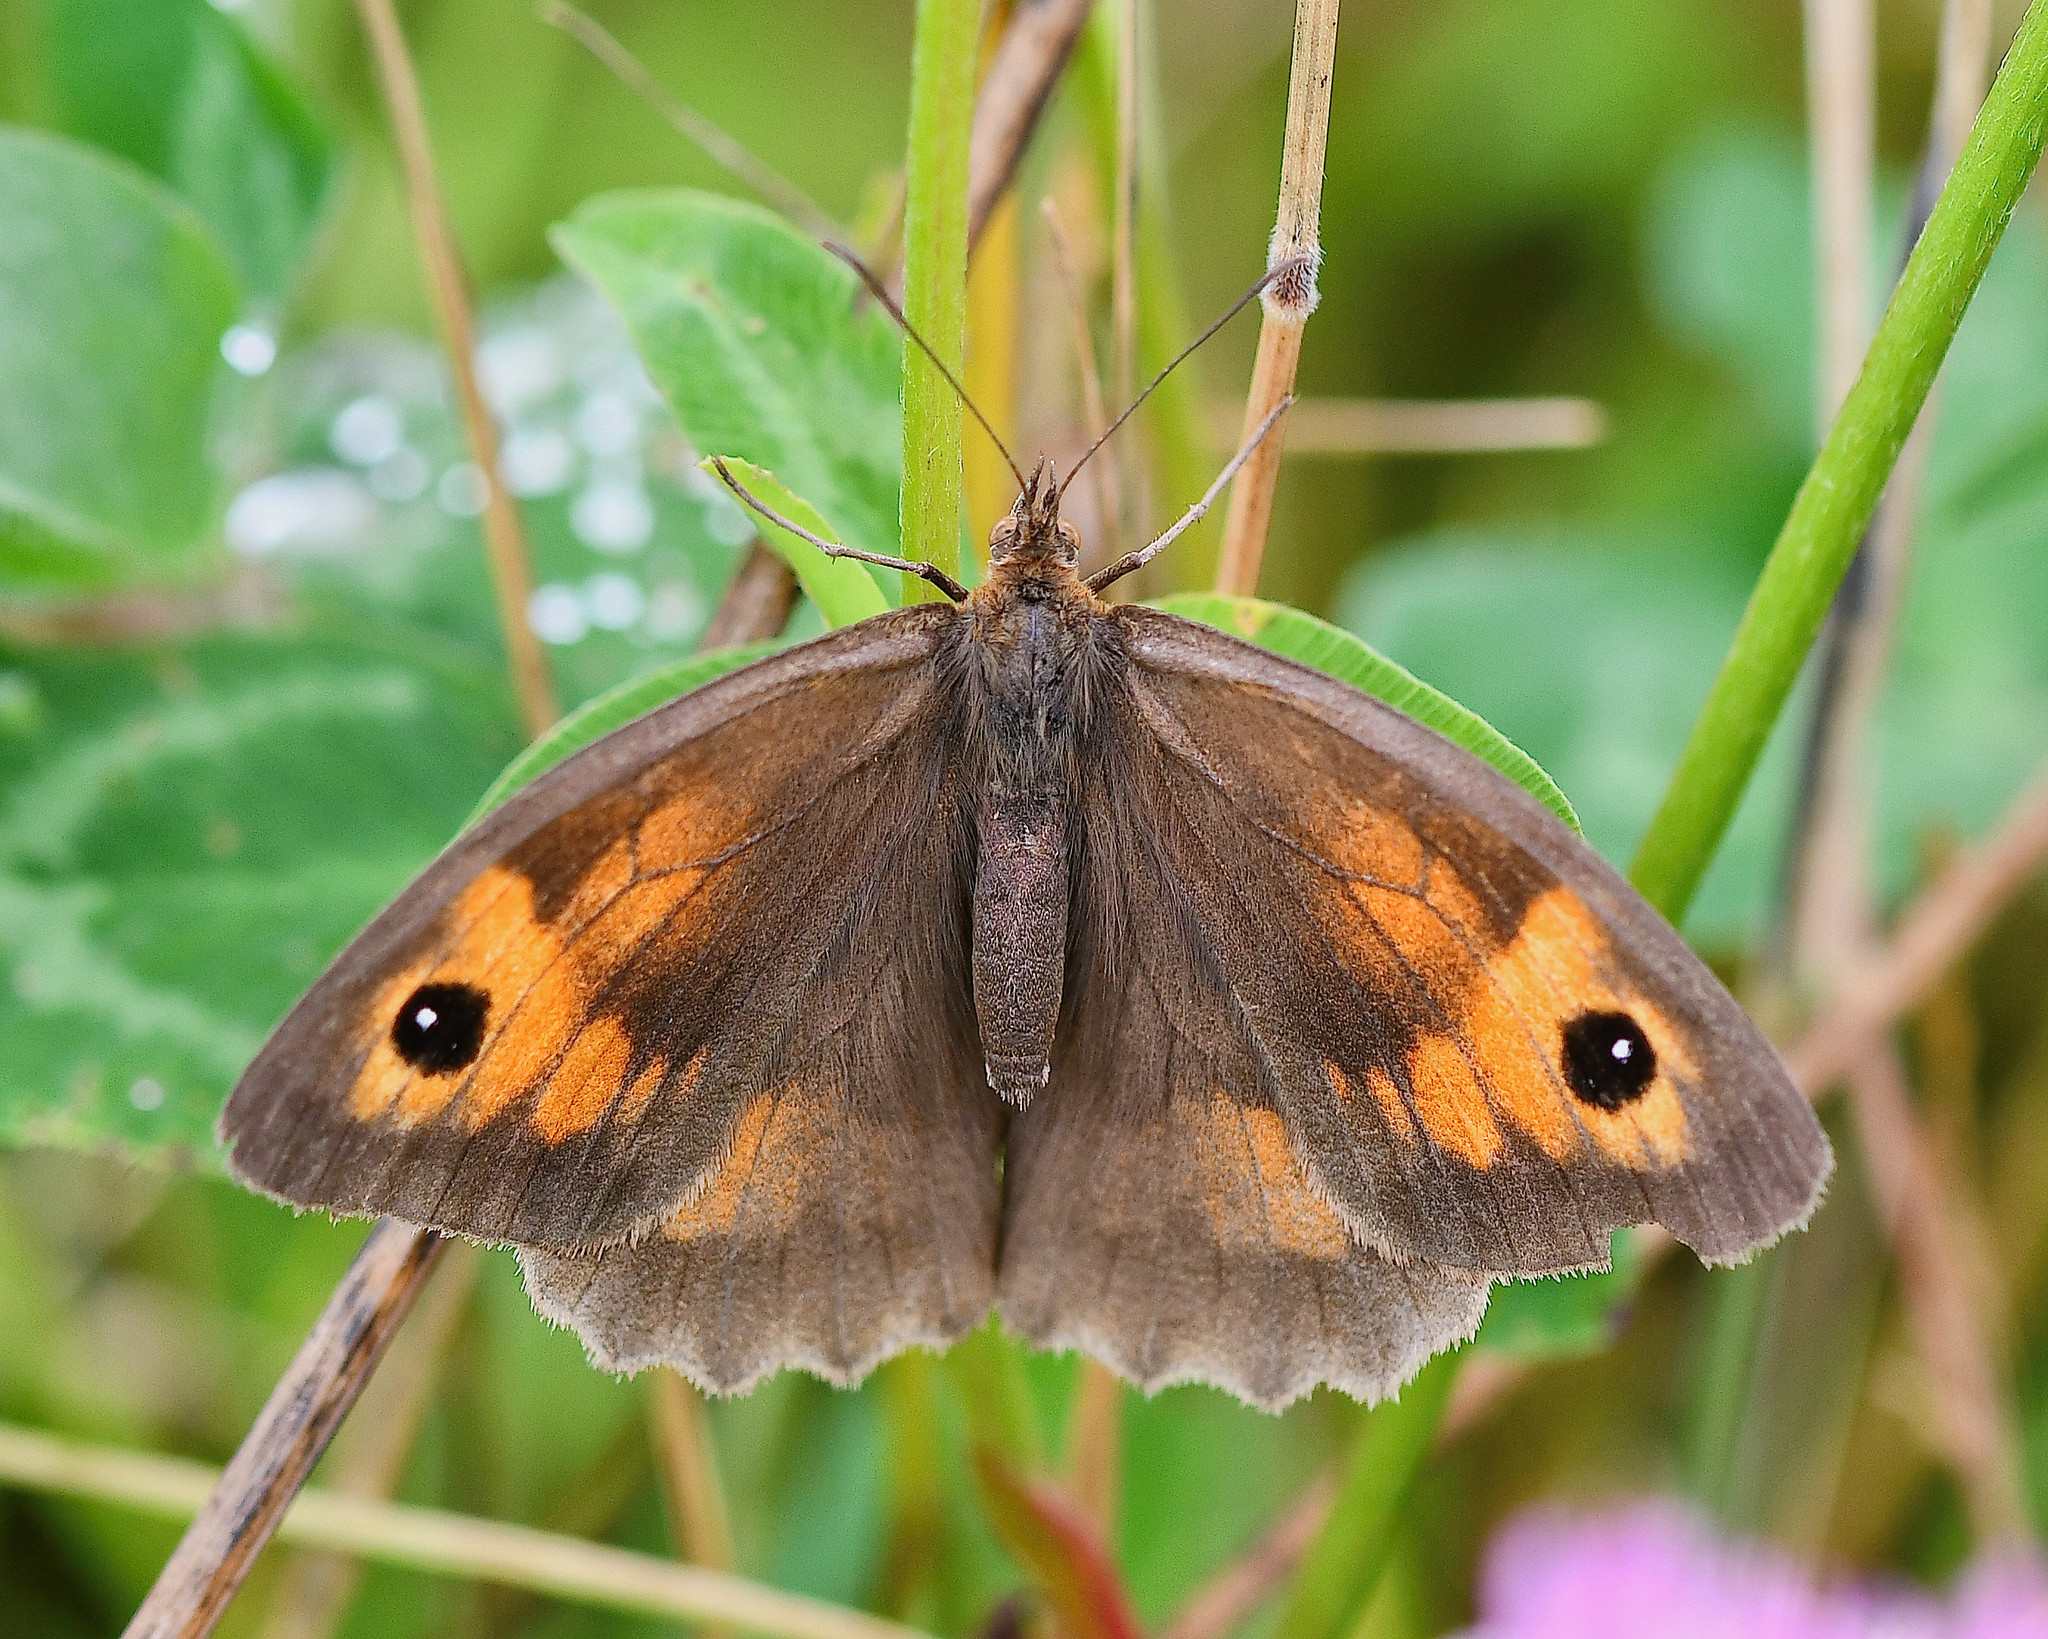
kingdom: Animalia
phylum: Arthropoda
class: Insecta
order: Lepidoptera
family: Nymphalidae
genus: Maniola
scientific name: Maniola jurtina
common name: Meadow brown
